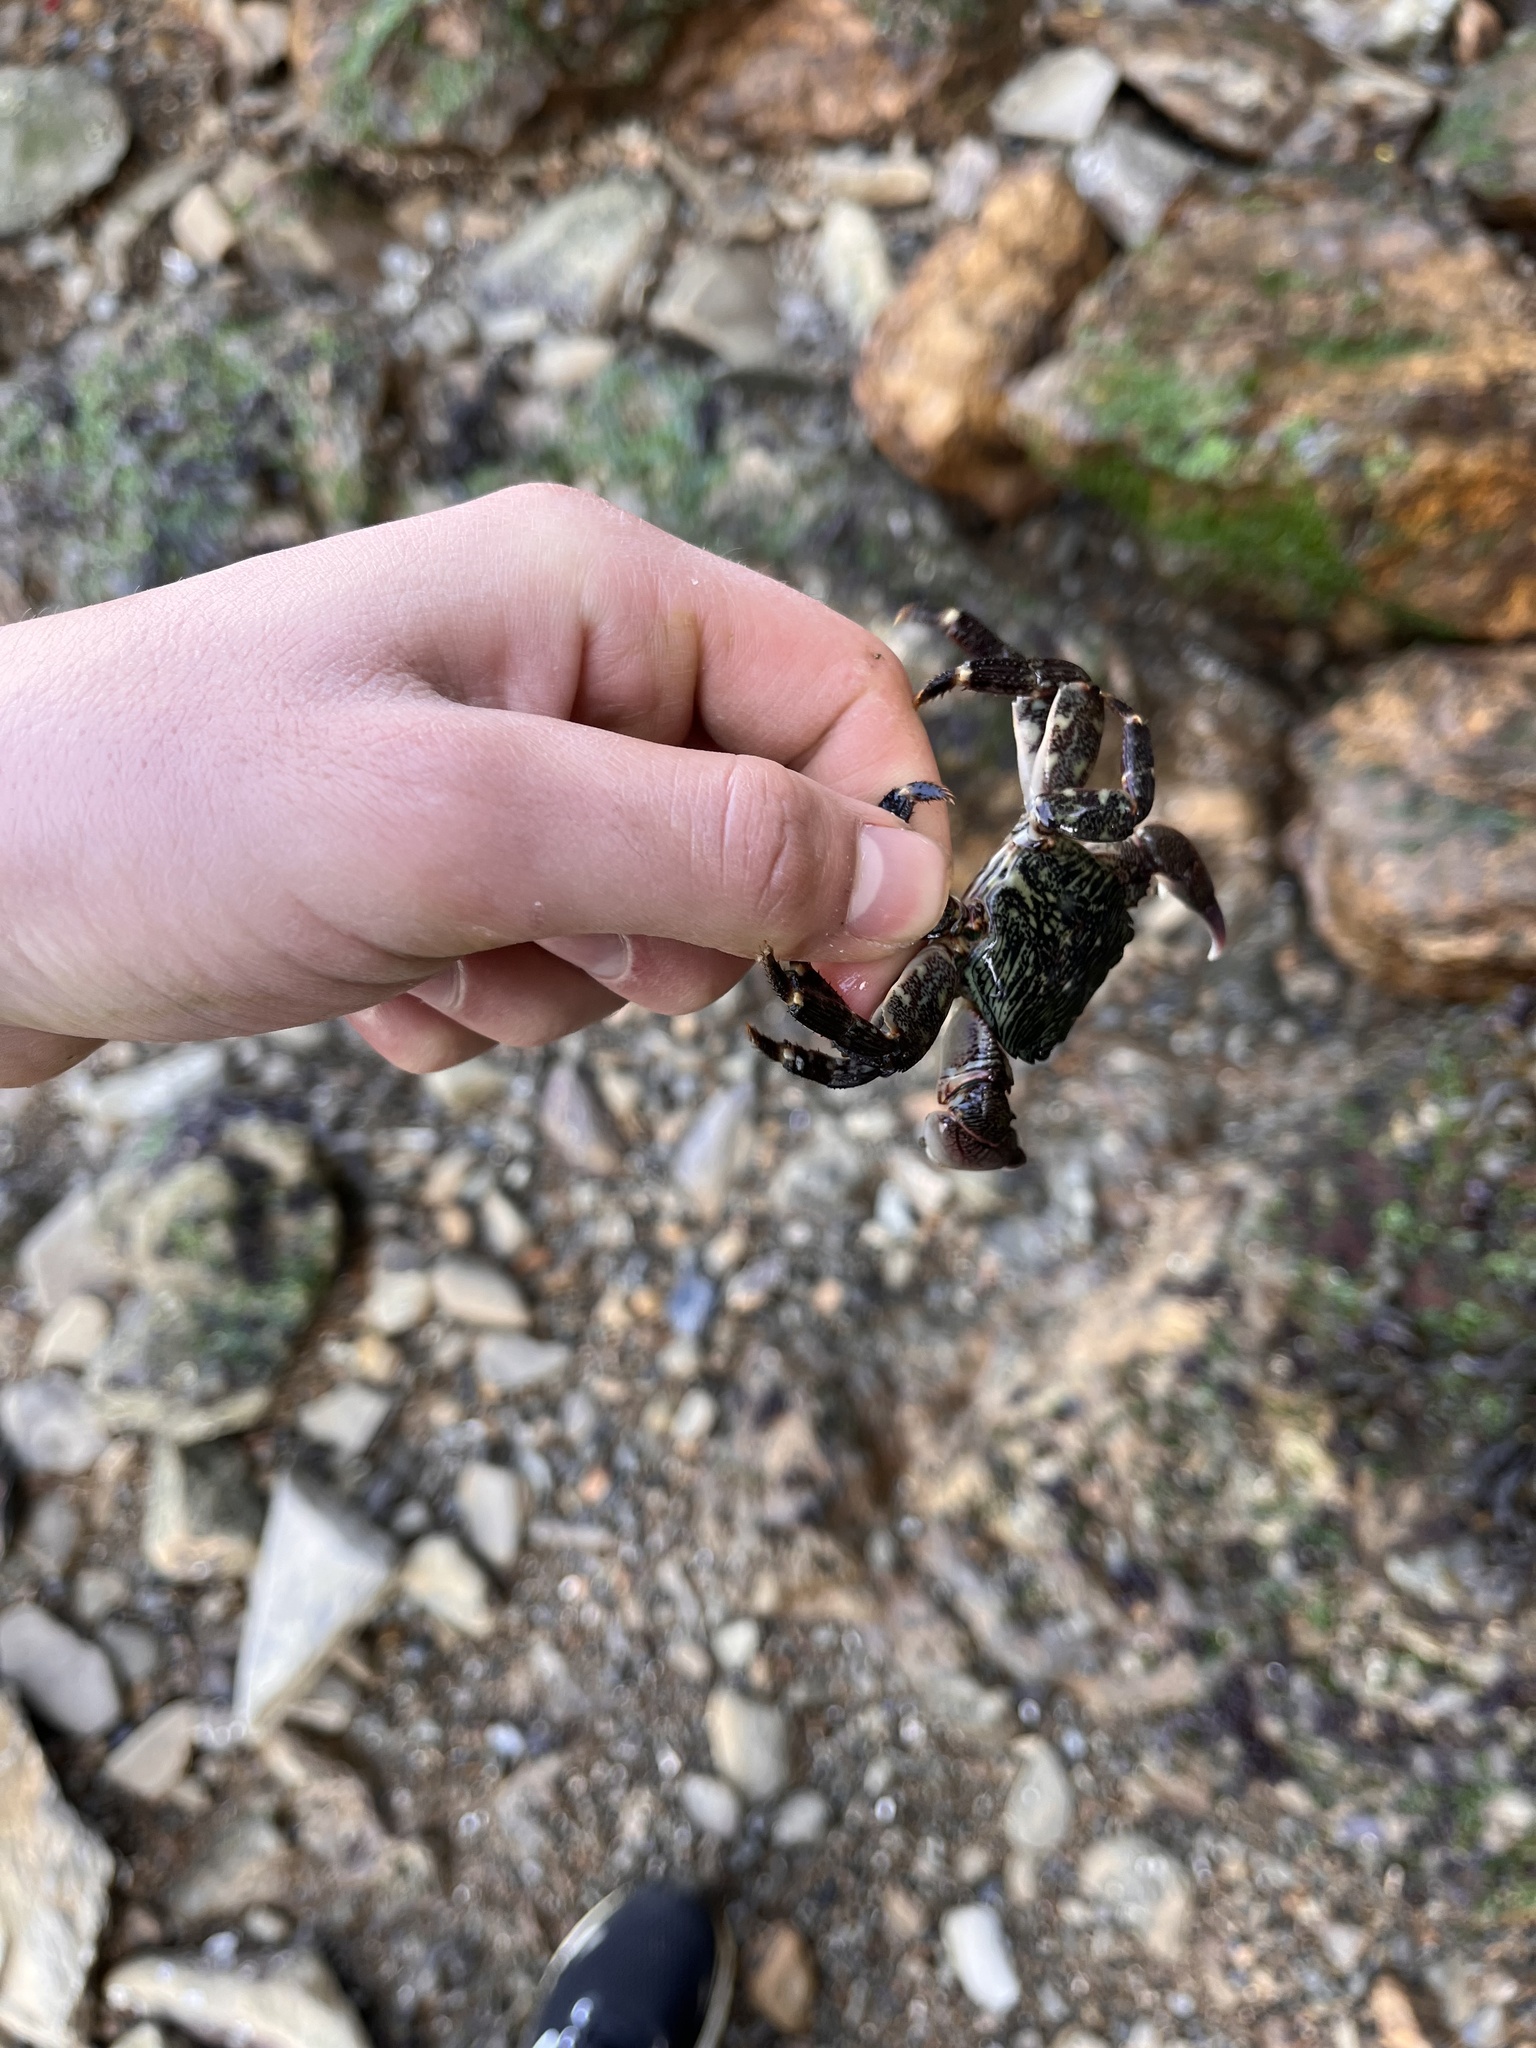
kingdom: Animalia
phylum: Arthropoda
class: Malacostraca
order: Decapoda
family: Grapsidae
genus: Pachygrapsus
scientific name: Pachygrapsus crassipes
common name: Striped shore crab
